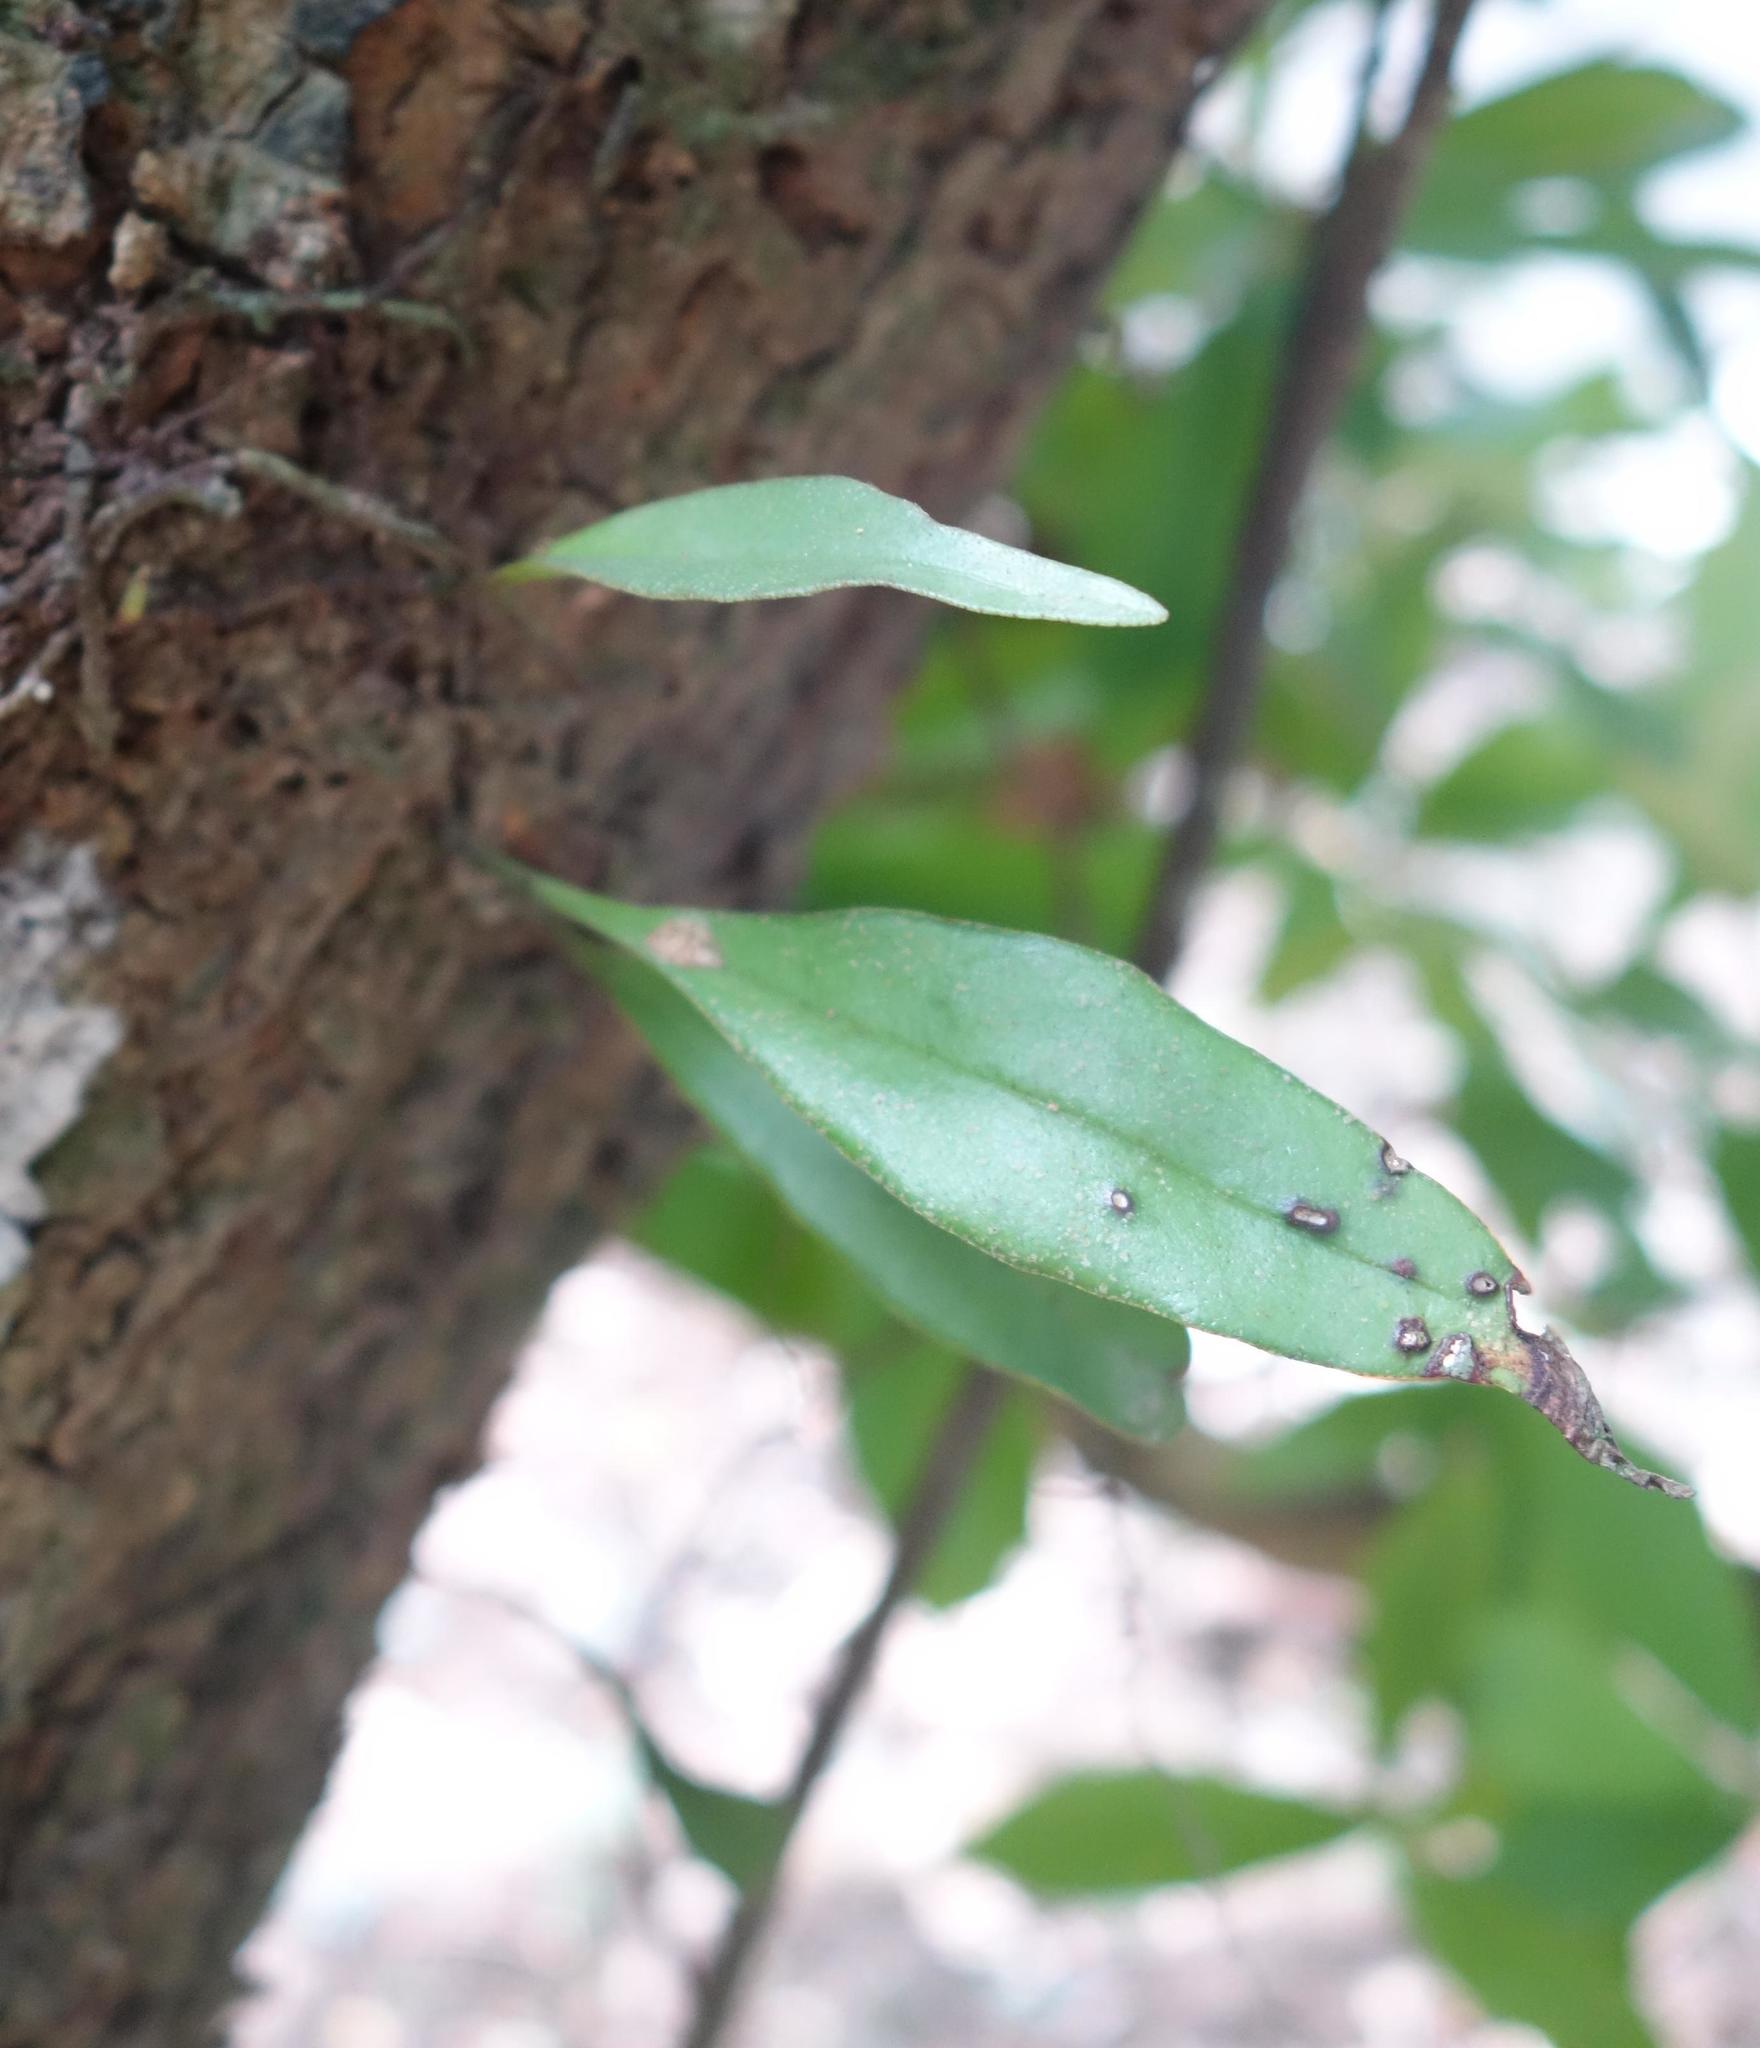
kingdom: Plantae
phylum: Tracheophyta
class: Polypodiopsida
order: Polypodiales
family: Polypodiaceae
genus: Loxogramme
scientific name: Loxogramme salicifolia
